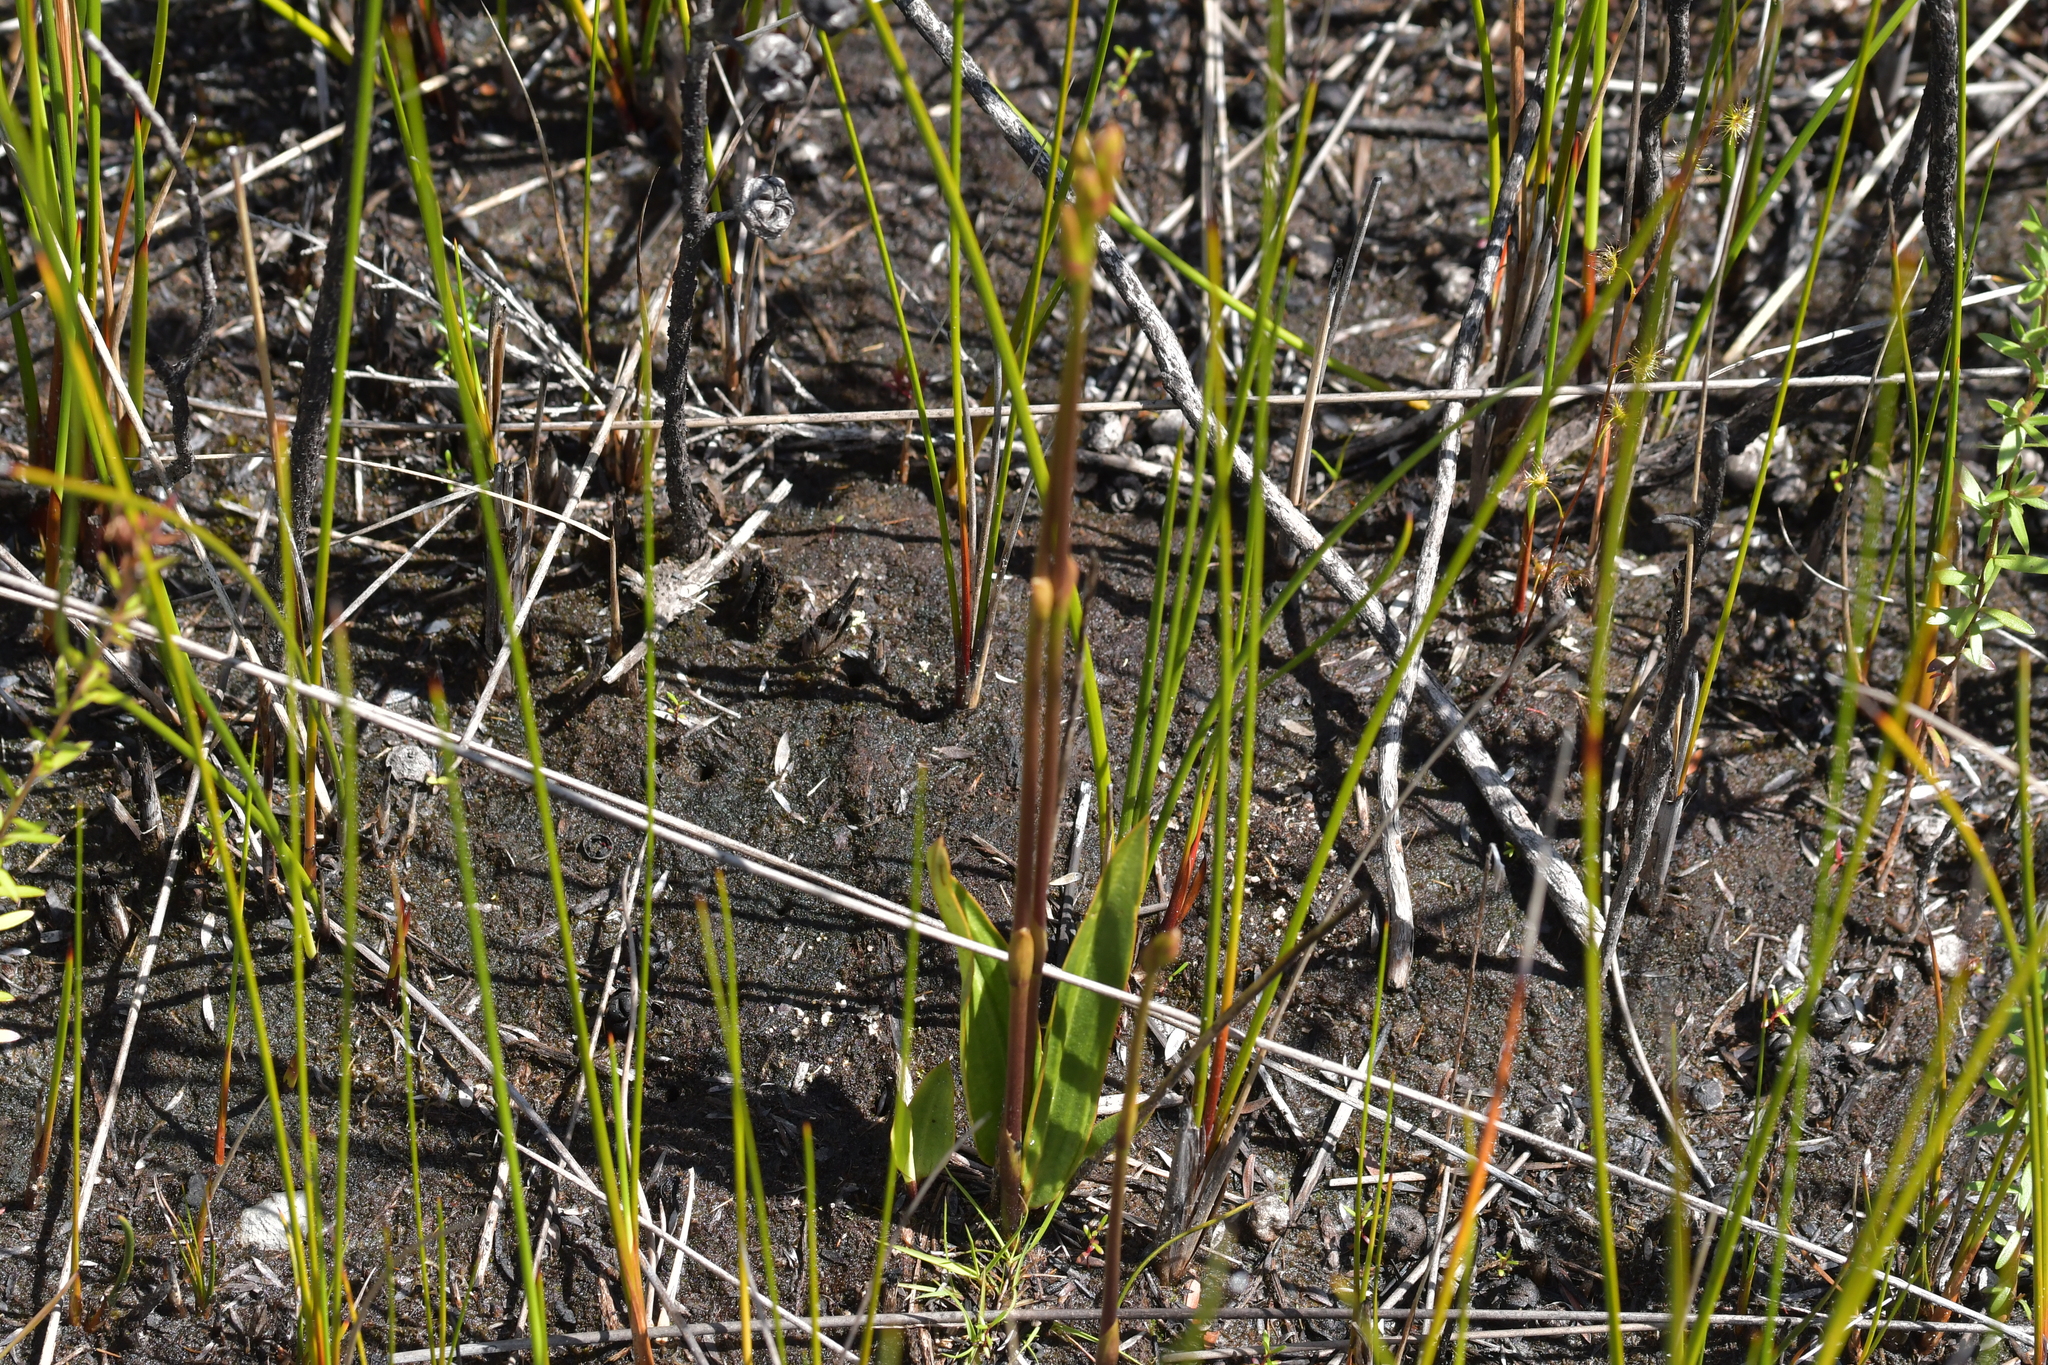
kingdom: Plantae
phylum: Tracheophyta
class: Liliopsida
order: Asparagales
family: Orchidaceae
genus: Cryptostylis
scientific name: Cryptostylis subulata
